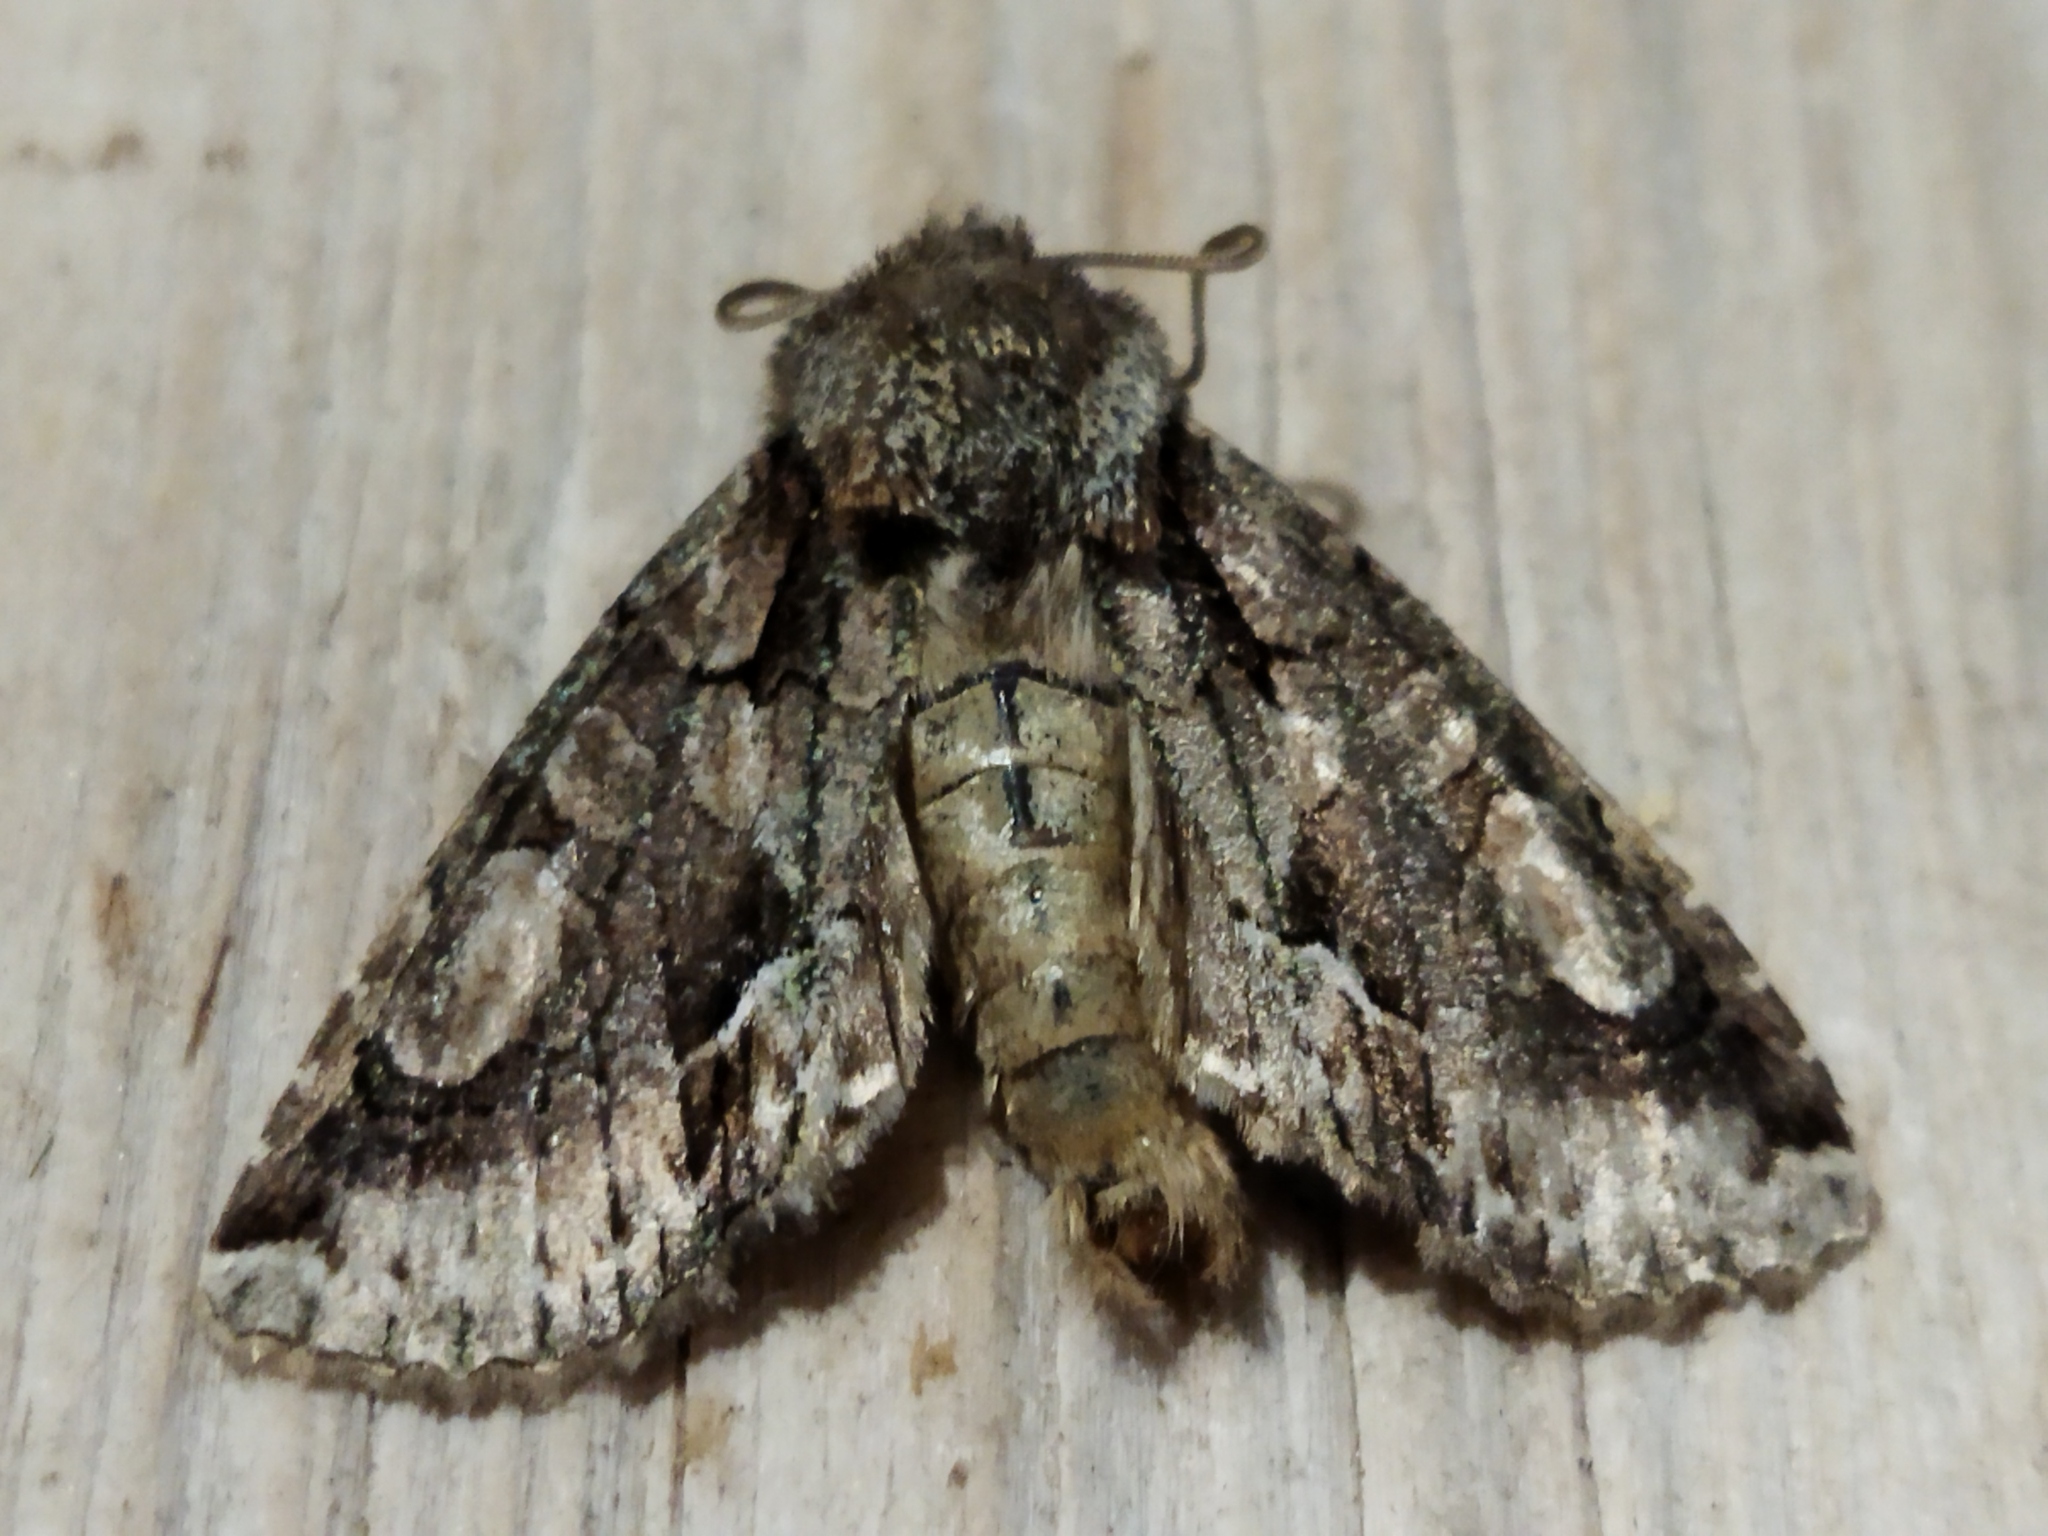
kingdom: Animalia
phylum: Arthropoda
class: Insecta
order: Lepidoptera
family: Noctuidae
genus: Allophyes
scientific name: Allophyes oxyacanthae
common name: Green-brindled crescent
